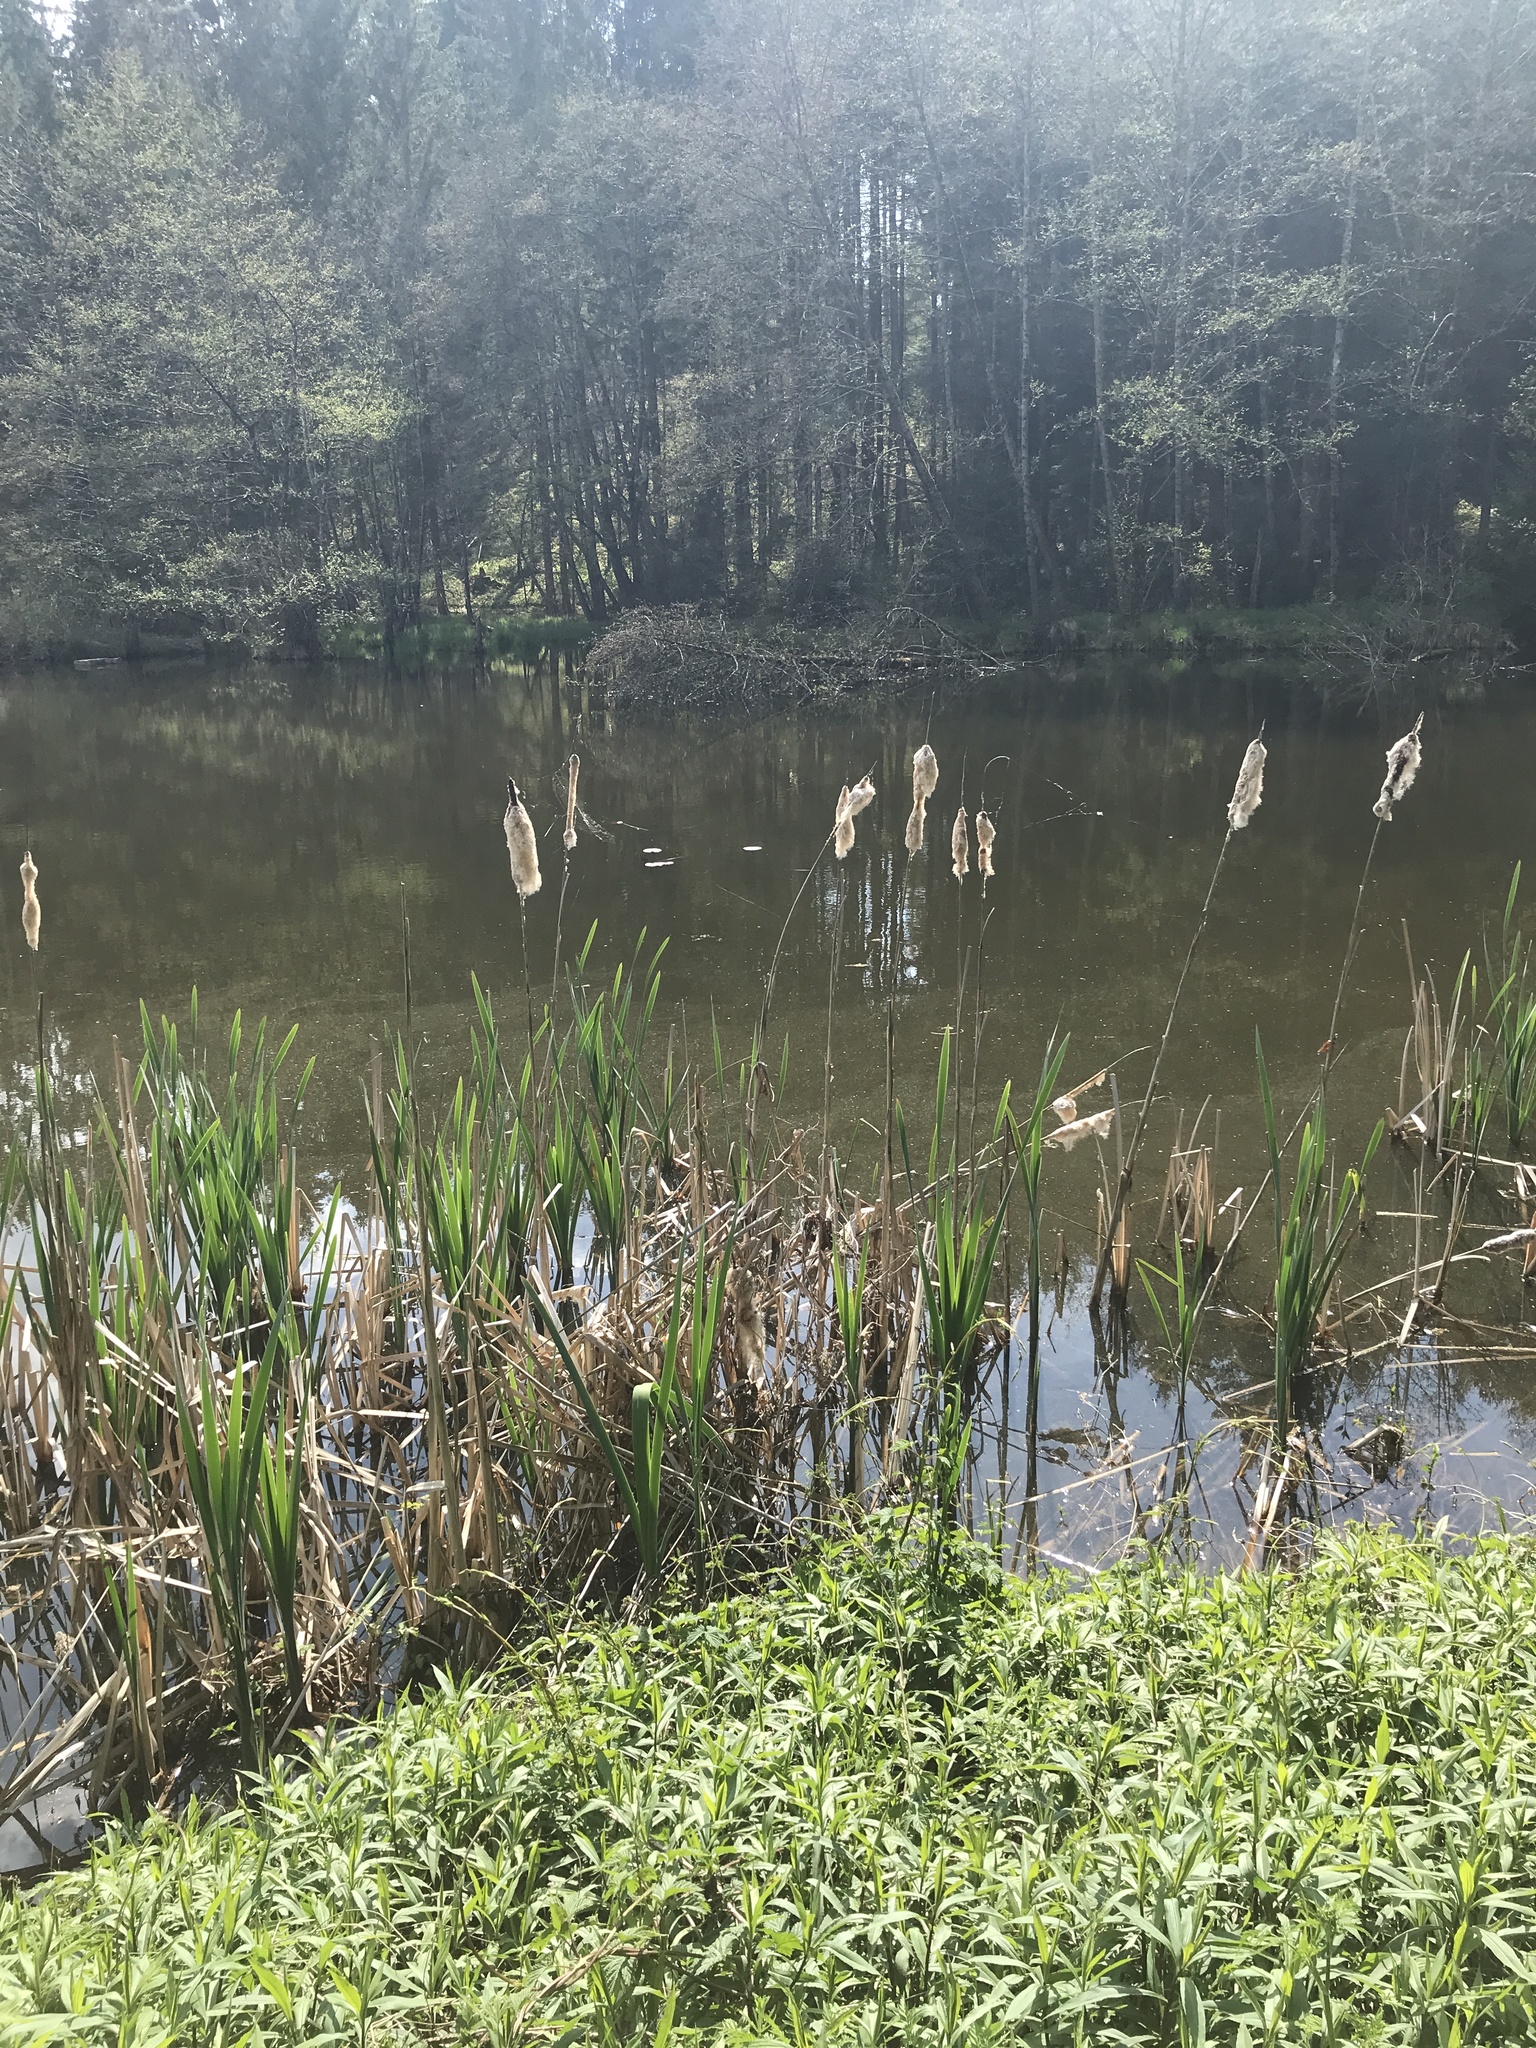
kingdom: Plantae
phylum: Tracheophyta
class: Liliopsida
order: Poales
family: Typhaceae
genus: Typha
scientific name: Typha latifolia
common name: Broadleaf cattail
